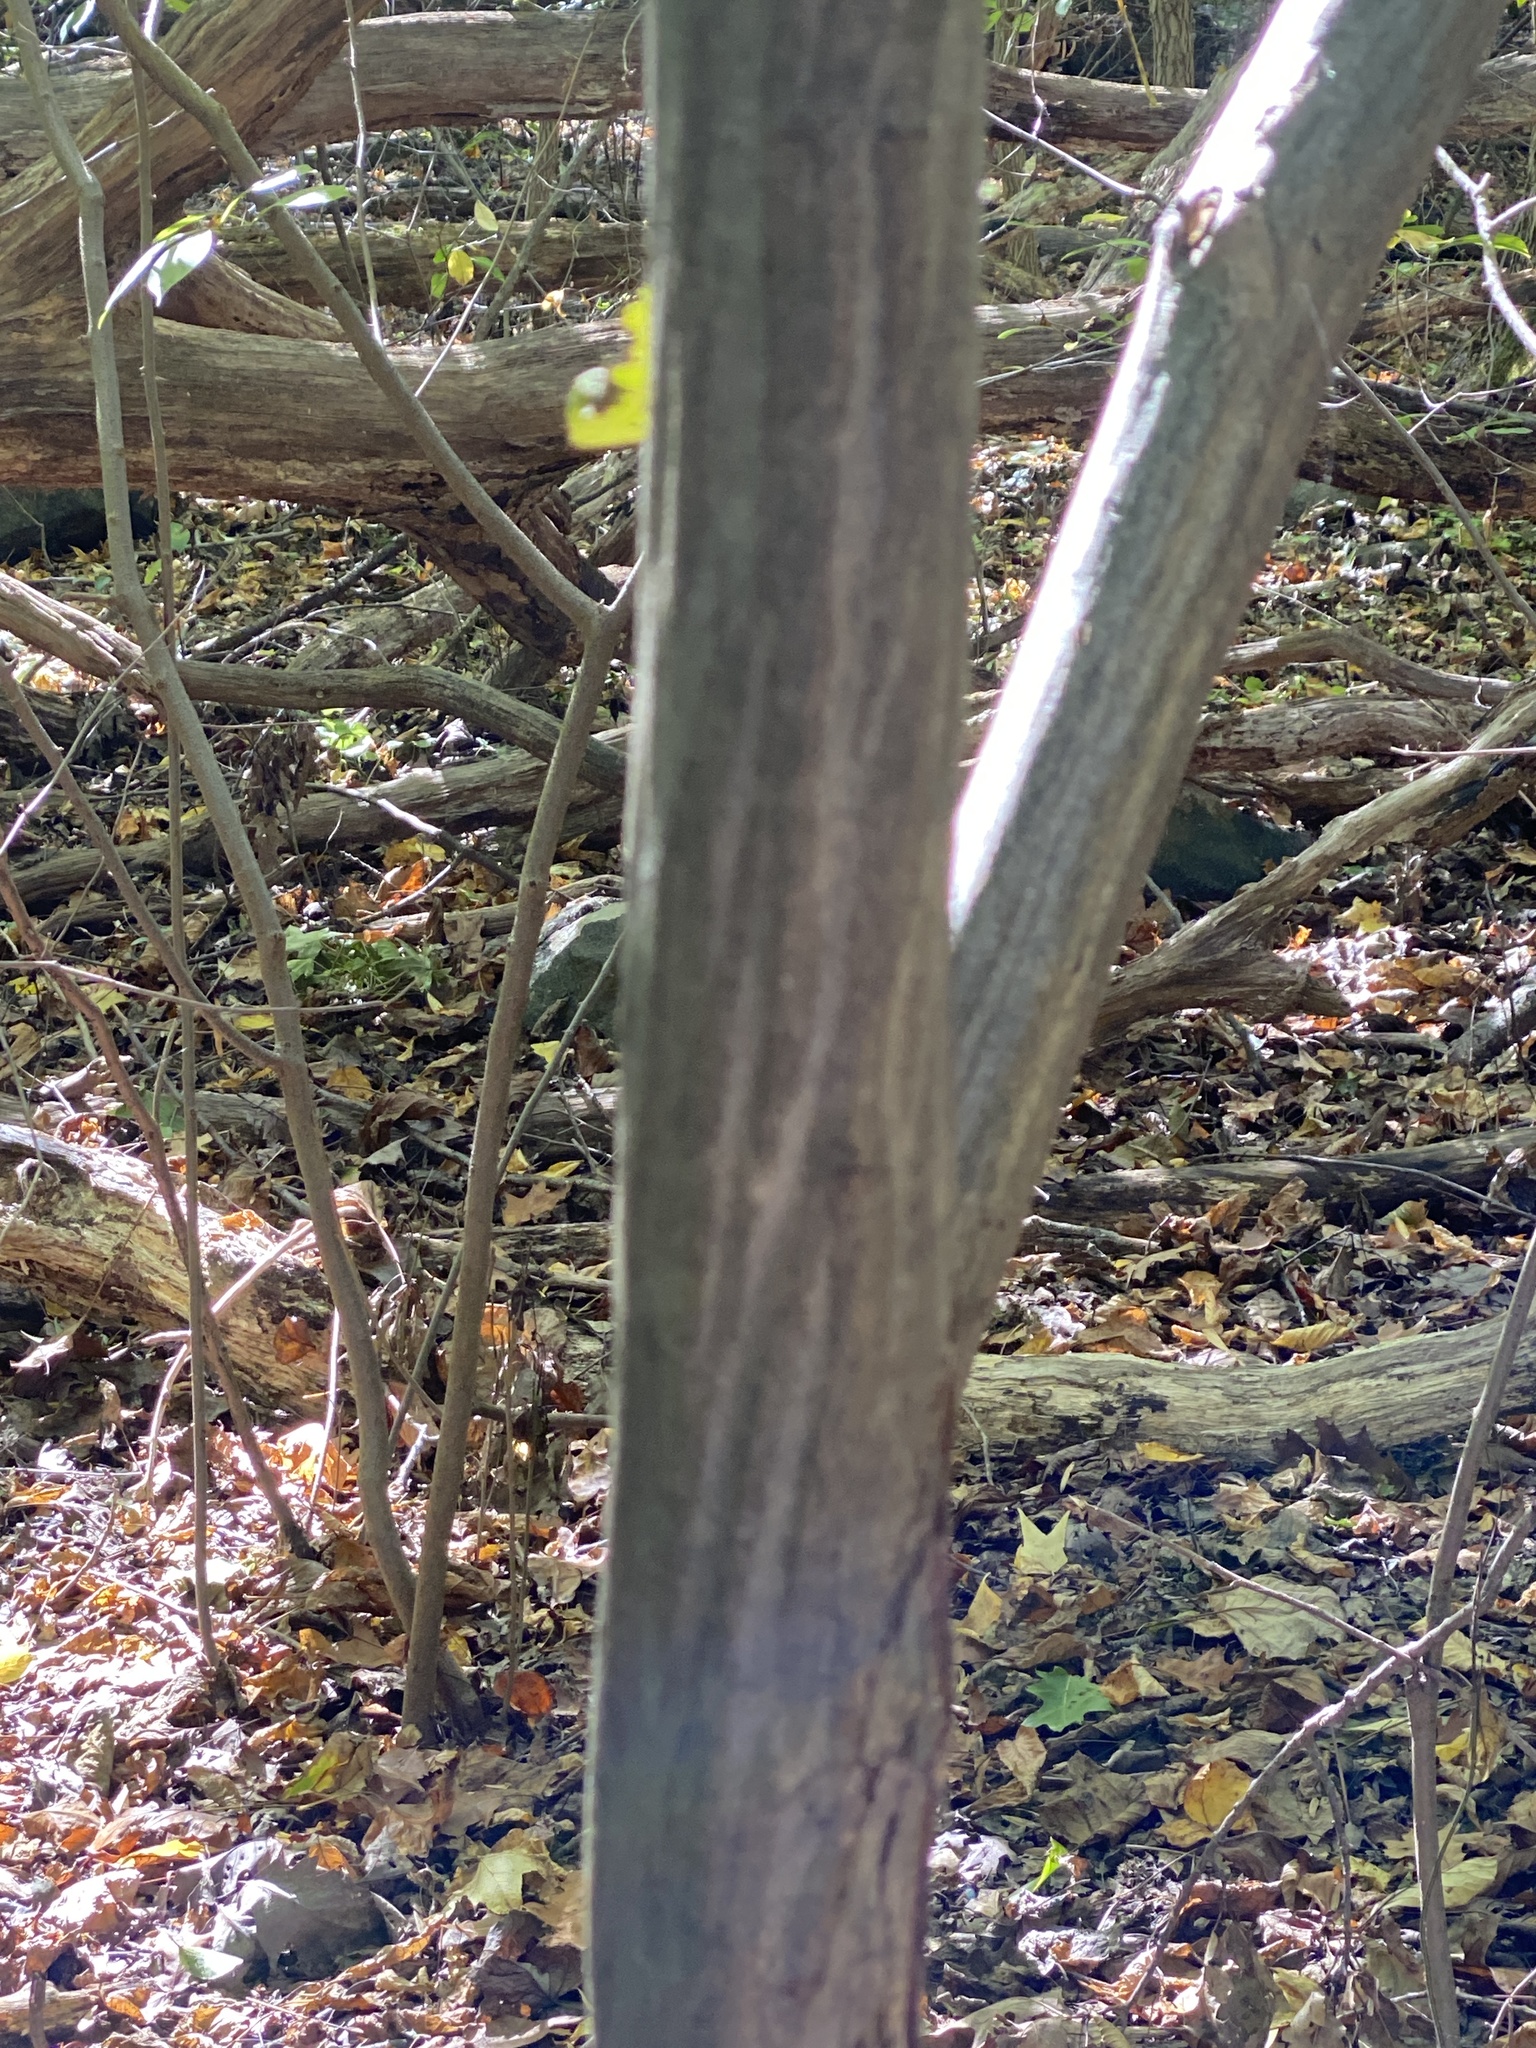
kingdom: Plantae
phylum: Tracheophyta
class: Magnoliopsida
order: Fagales
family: Betulaceae
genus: Carpinus
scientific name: Carpinus caroliniana
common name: American hornbeam
